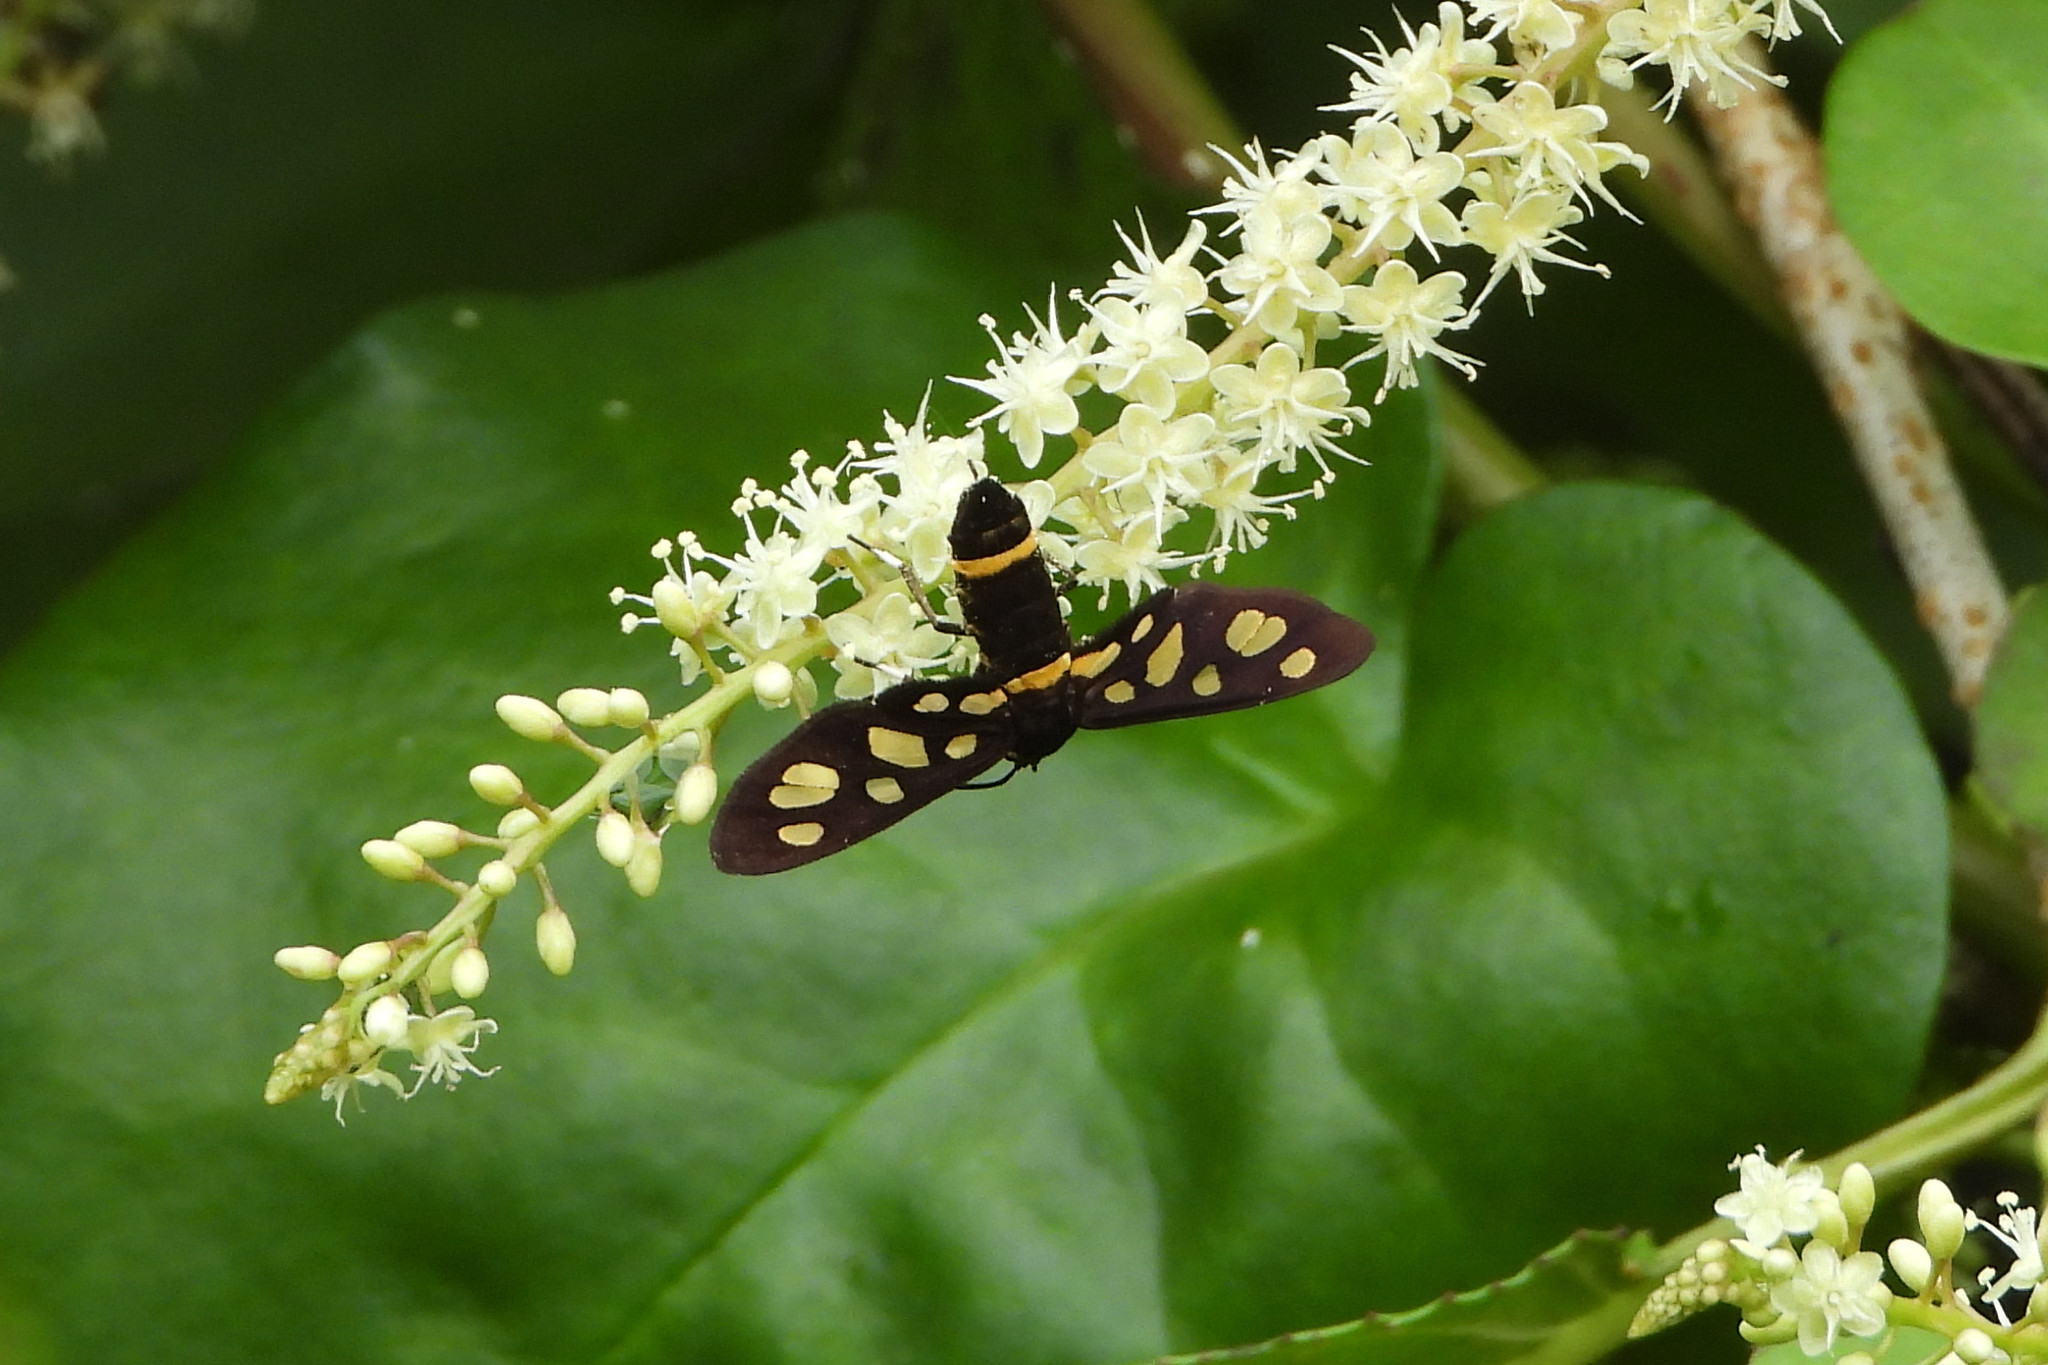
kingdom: Animalia
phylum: Arthropoda
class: Insecta
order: Lepidoptera
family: Erebidae
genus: Amata
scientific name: Amata bicincta
